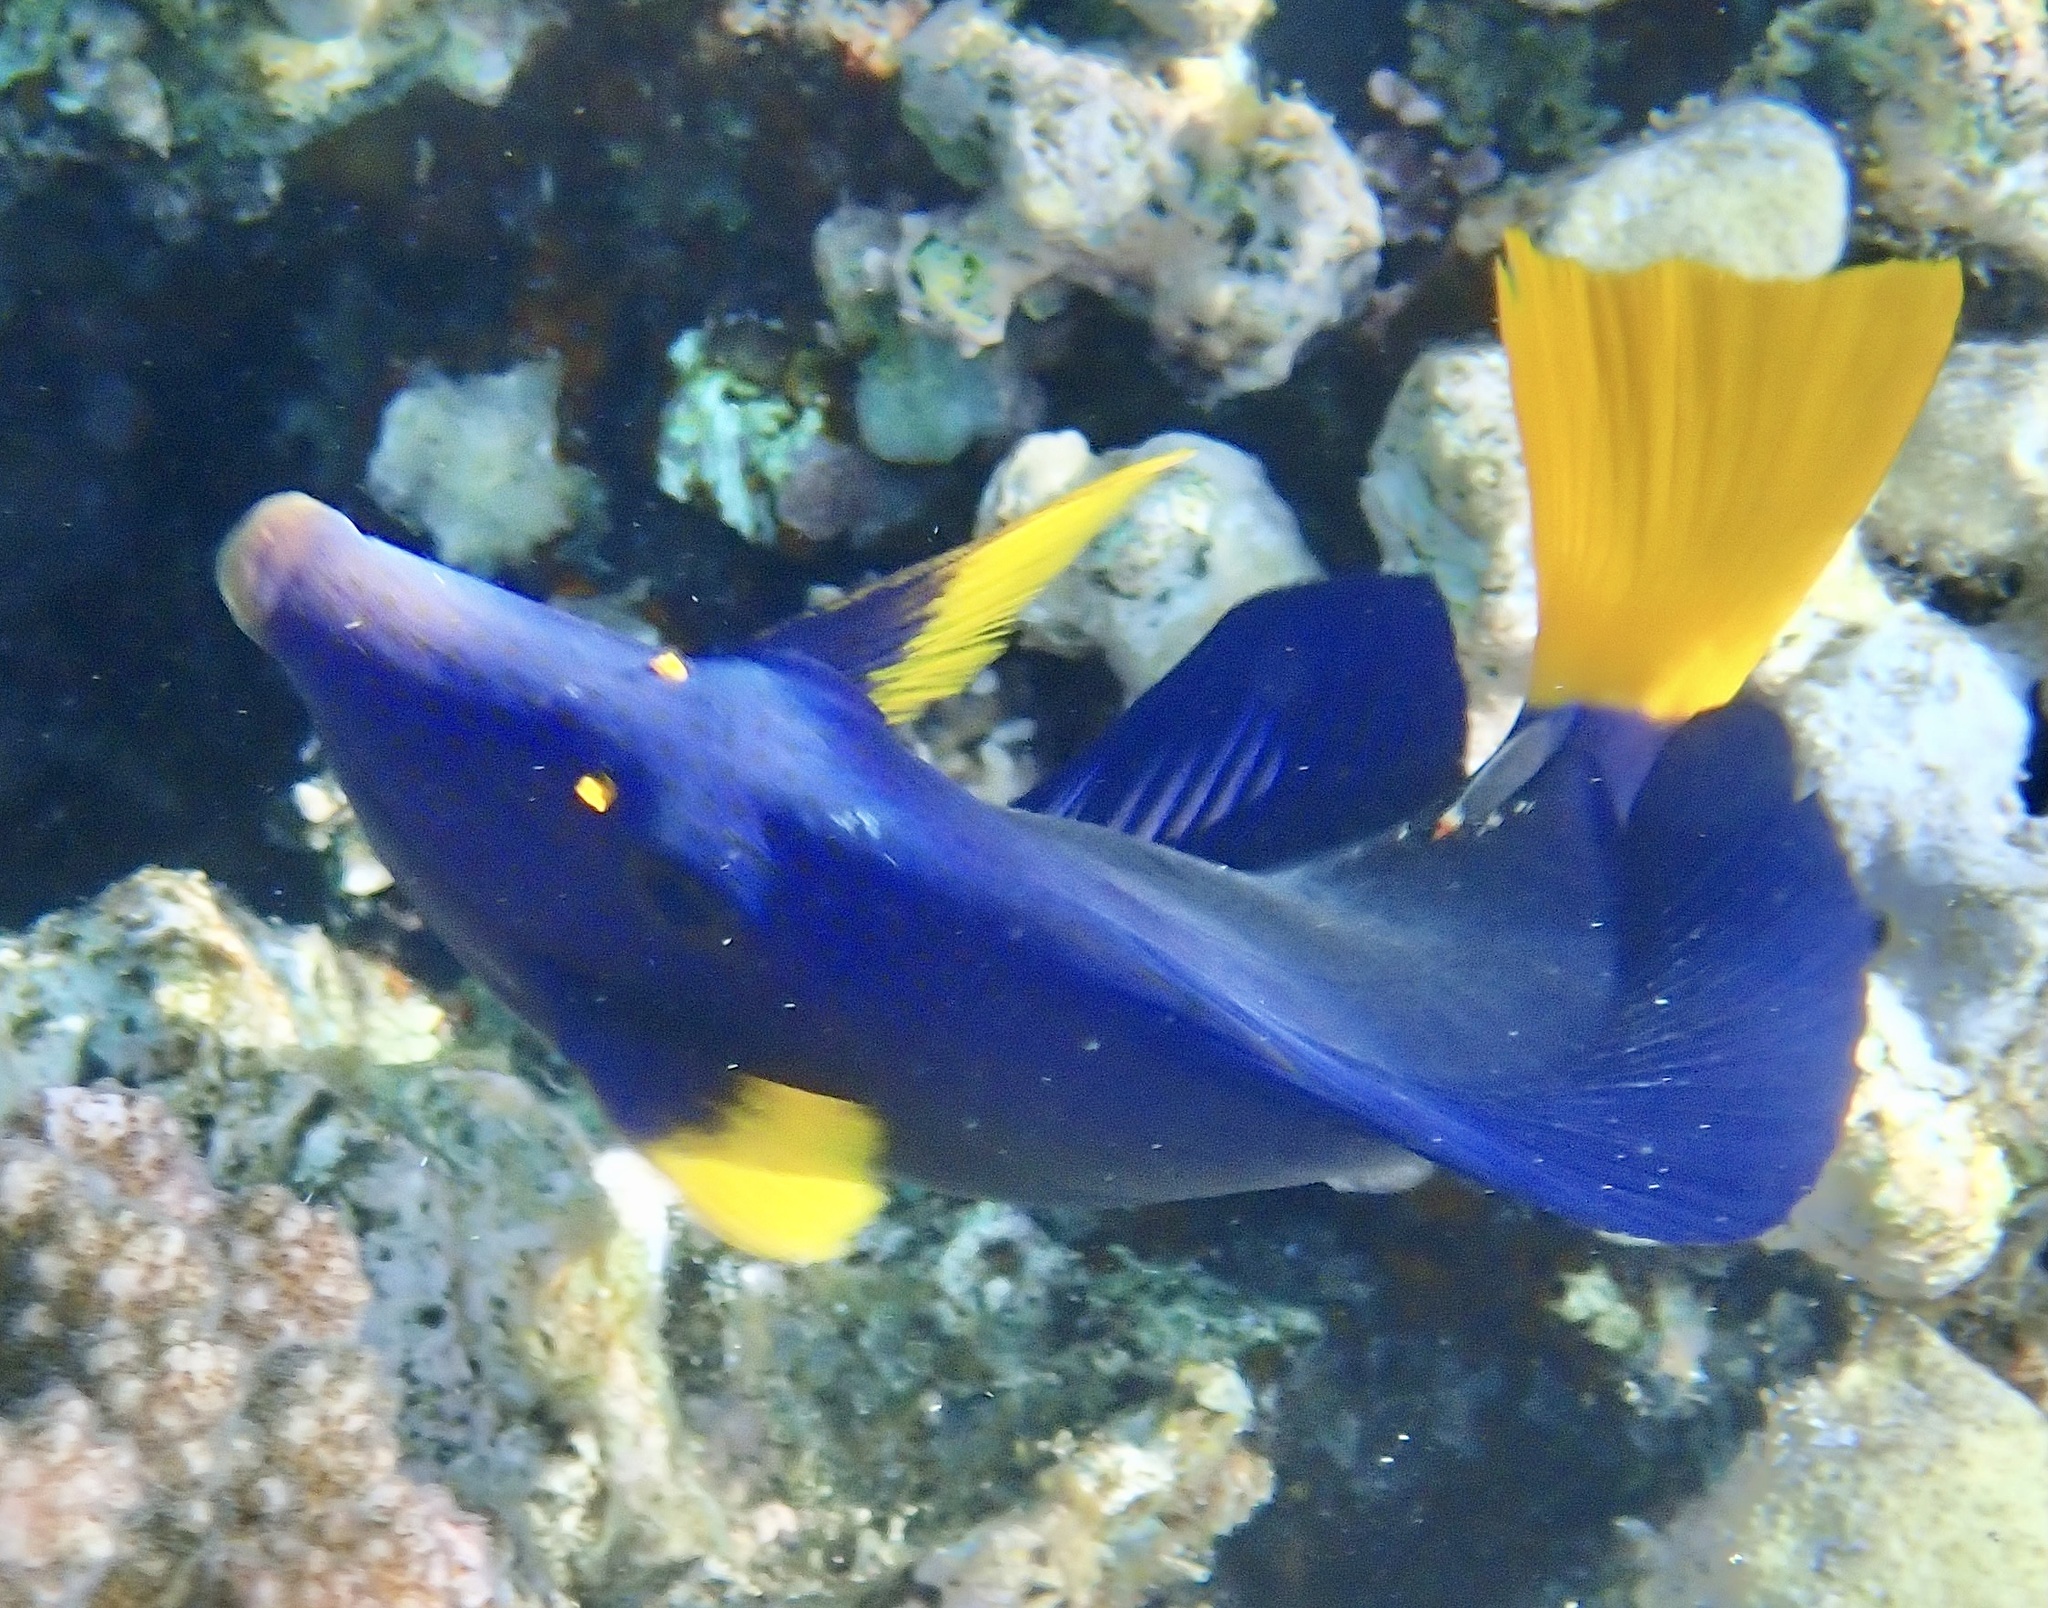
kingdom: Animalia
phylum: Chordata
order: Perciformes
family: Acanthuridae
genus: Zebrasoma
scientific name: Zebrasoma xanthurum
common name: Purple tang
